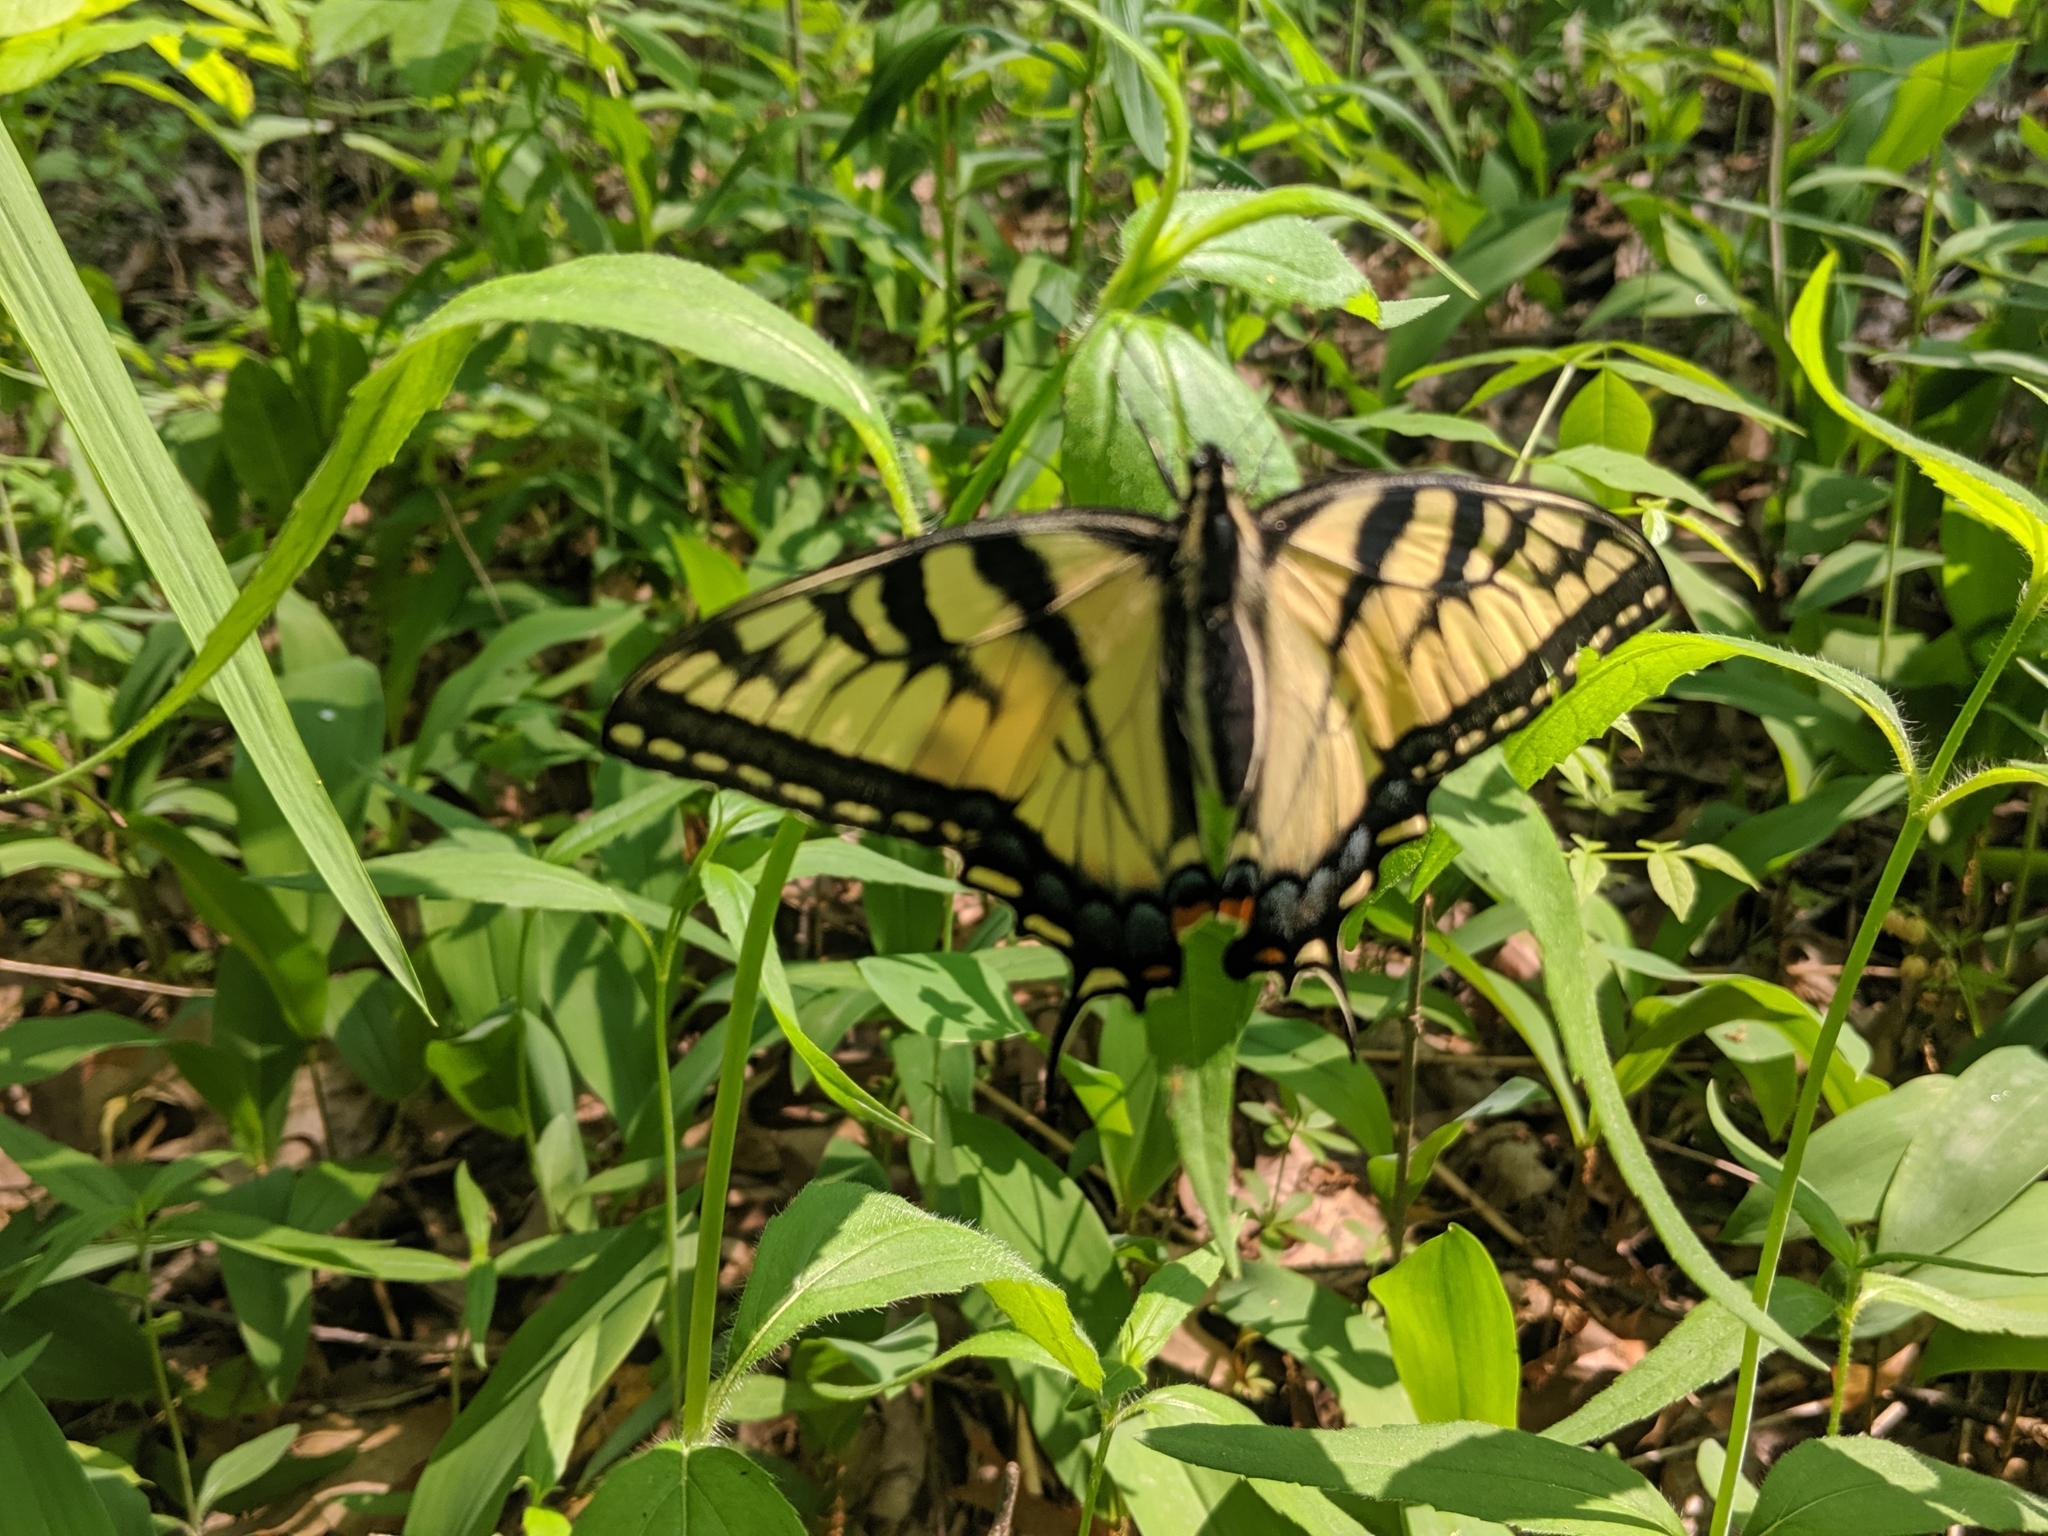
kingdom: Animalia
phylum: Arthropoda
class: Insecta
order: Lepidoptera
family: Papilionidae
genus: Papilio
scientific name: Papilio glaucus
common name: Tiger swallowtail
